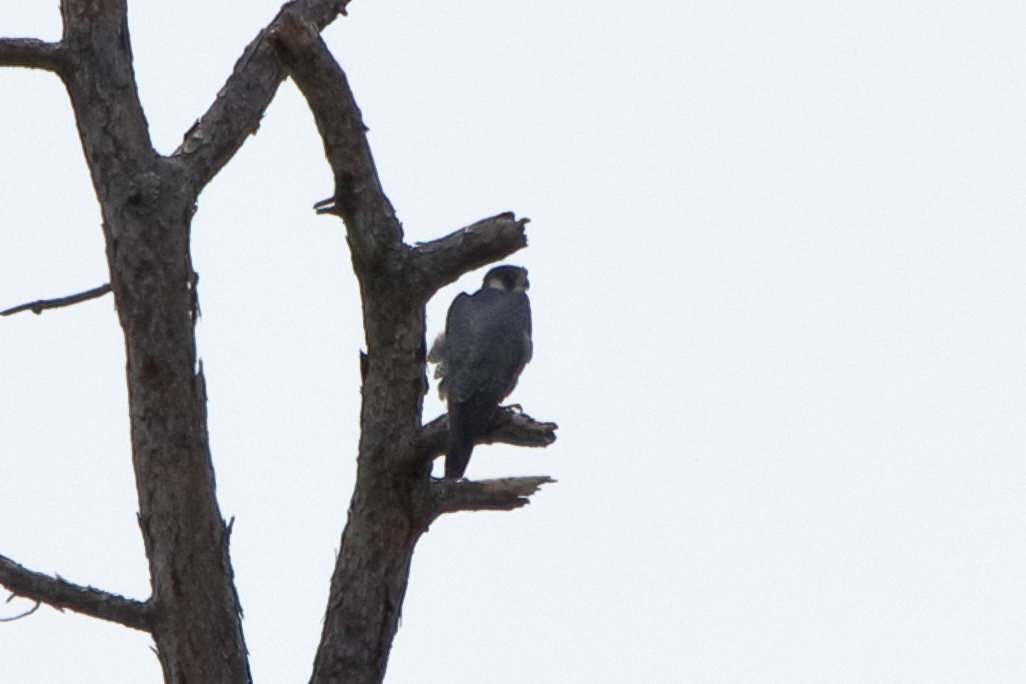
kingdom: Animalia
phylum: Chordata
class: Aves
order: Falconiformes
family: Falconidae
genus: Falco
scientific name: Falco peregrinus
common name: Peregrine falcon
